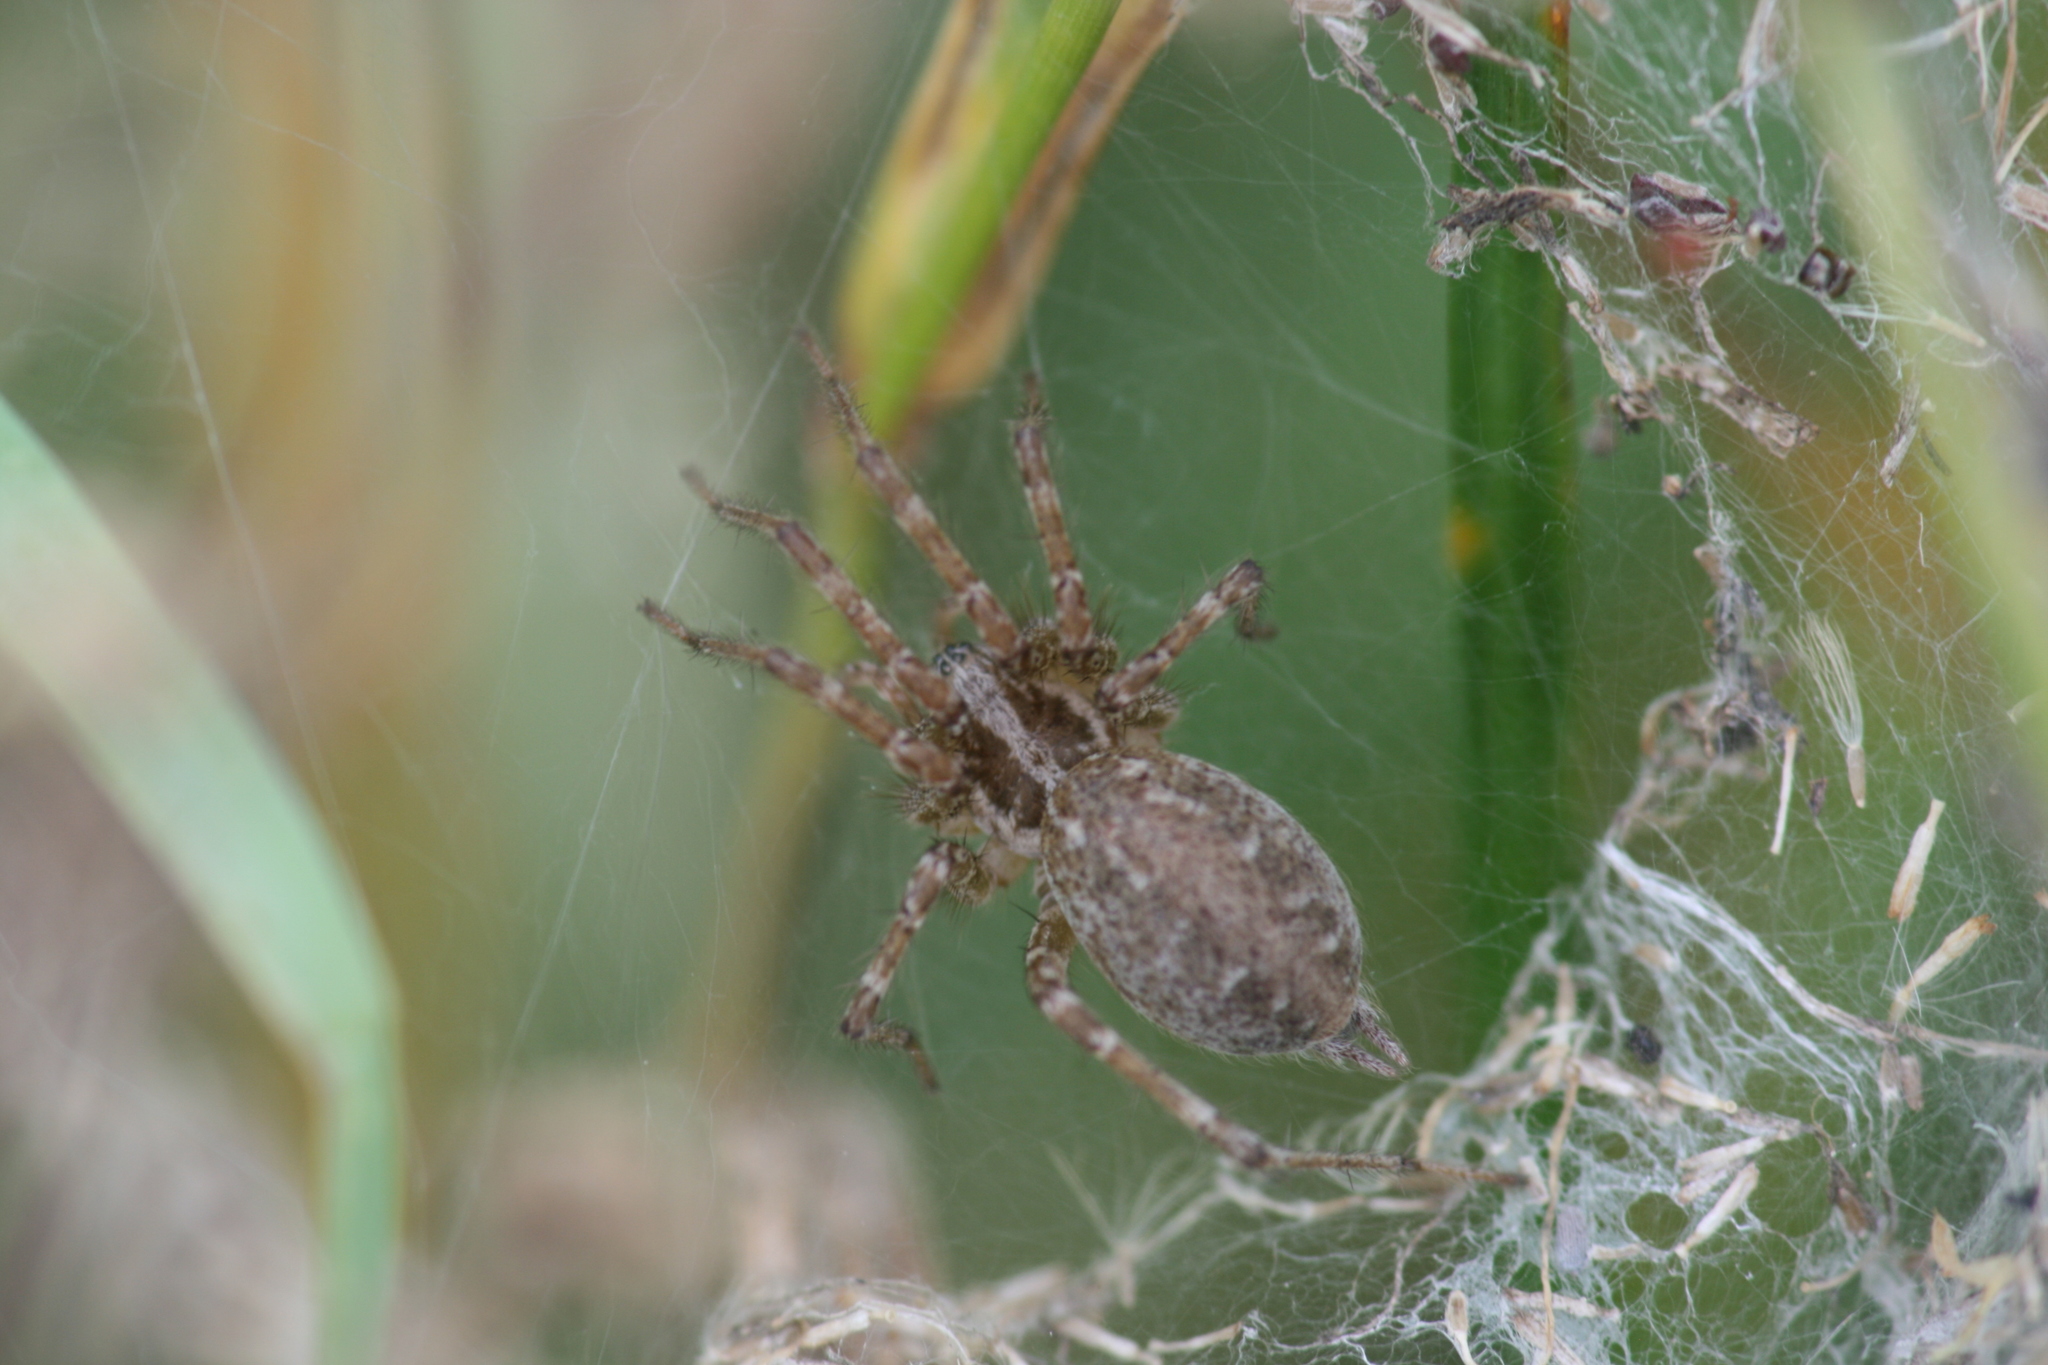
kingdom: Animalia
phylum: Arthropoda
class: Arachnida
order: Araneae
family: Agelenidae
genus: Allagelena
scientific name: Allagelena gracilens
